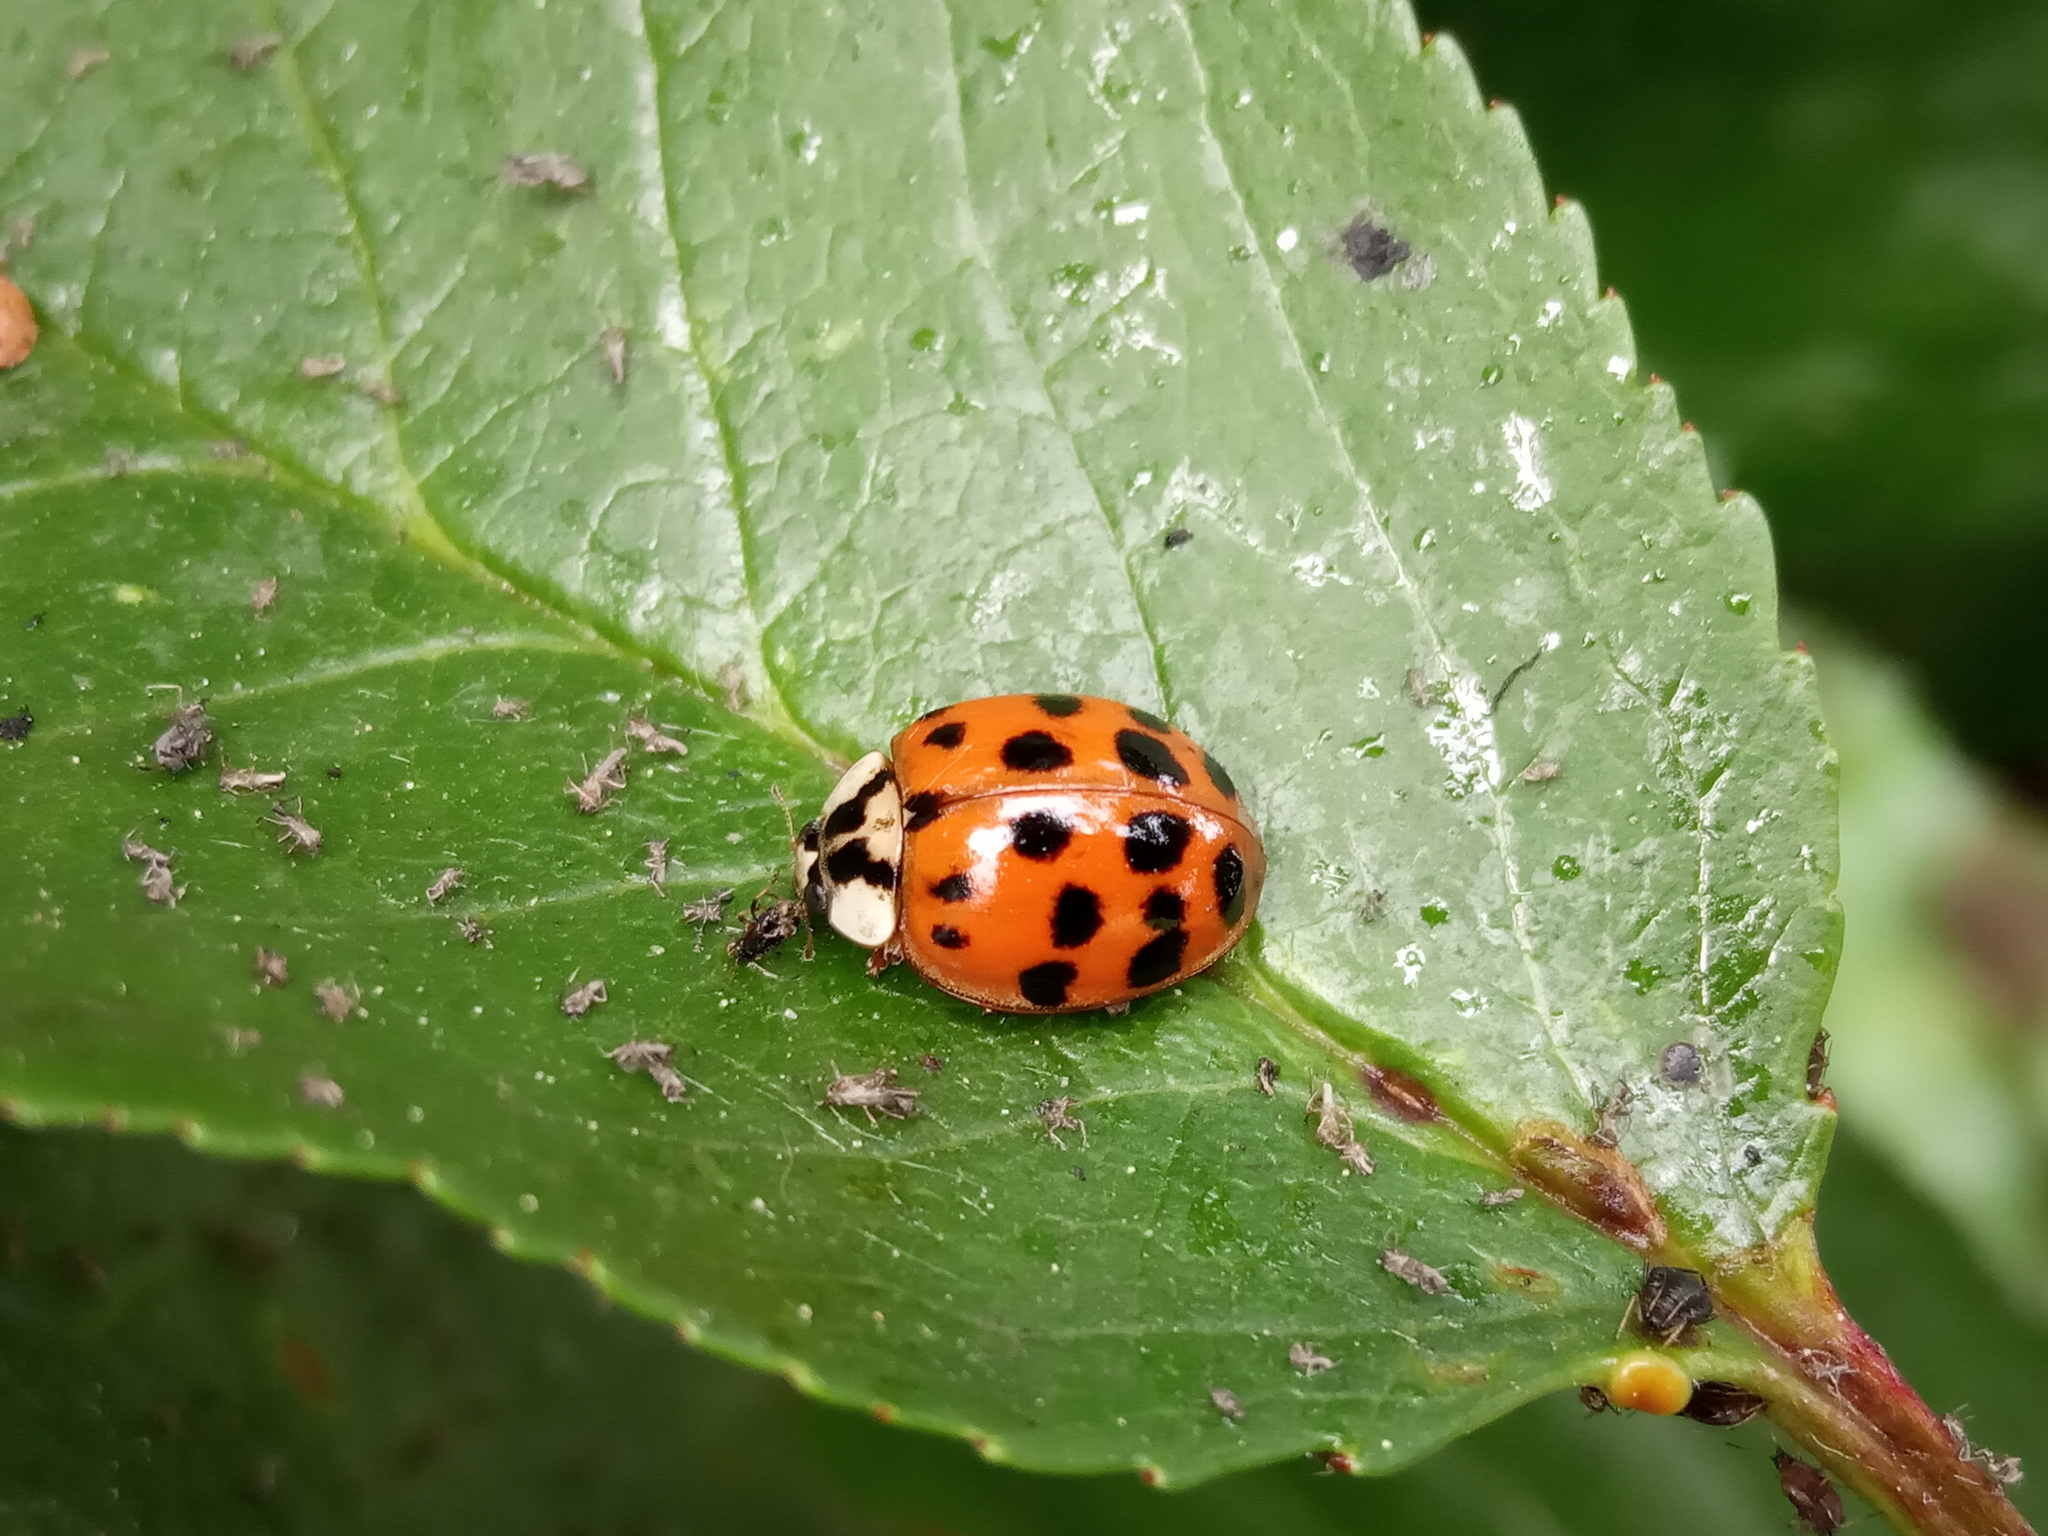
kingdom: Animalia
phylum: Arthropoda
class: Insecta
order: Coleoptera
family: Coccinellidae
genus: Harmonia
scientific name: Harmonia axyridis
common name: Harlequin ladybird
